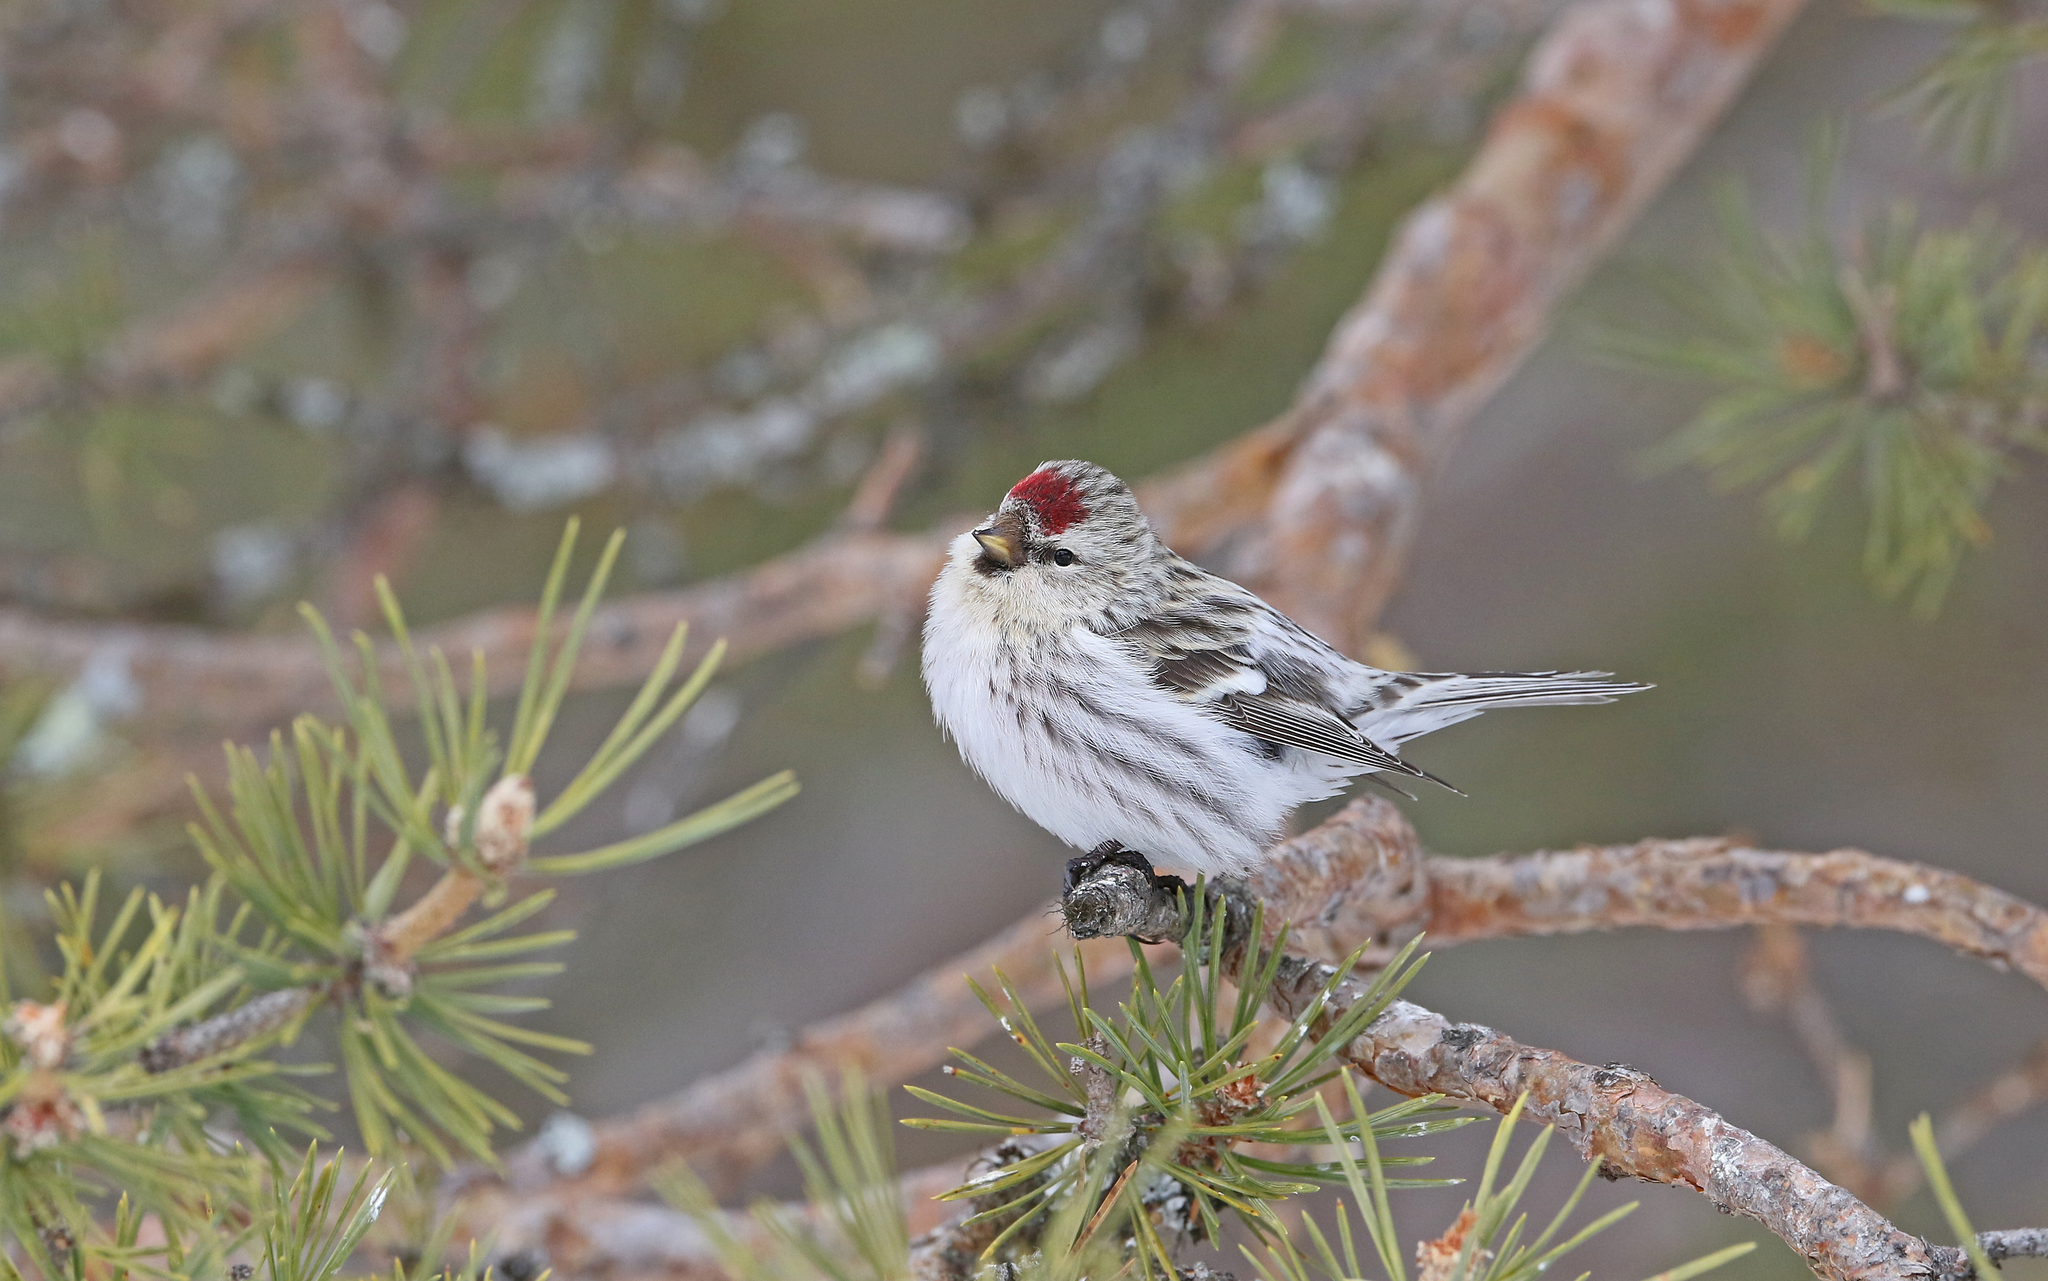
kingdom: Animalia
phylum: Chordata
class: Aves
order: Passeriformes
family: Fringillidae
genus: Acanthis
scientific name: Acanthis flammea
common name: Common redpoll
